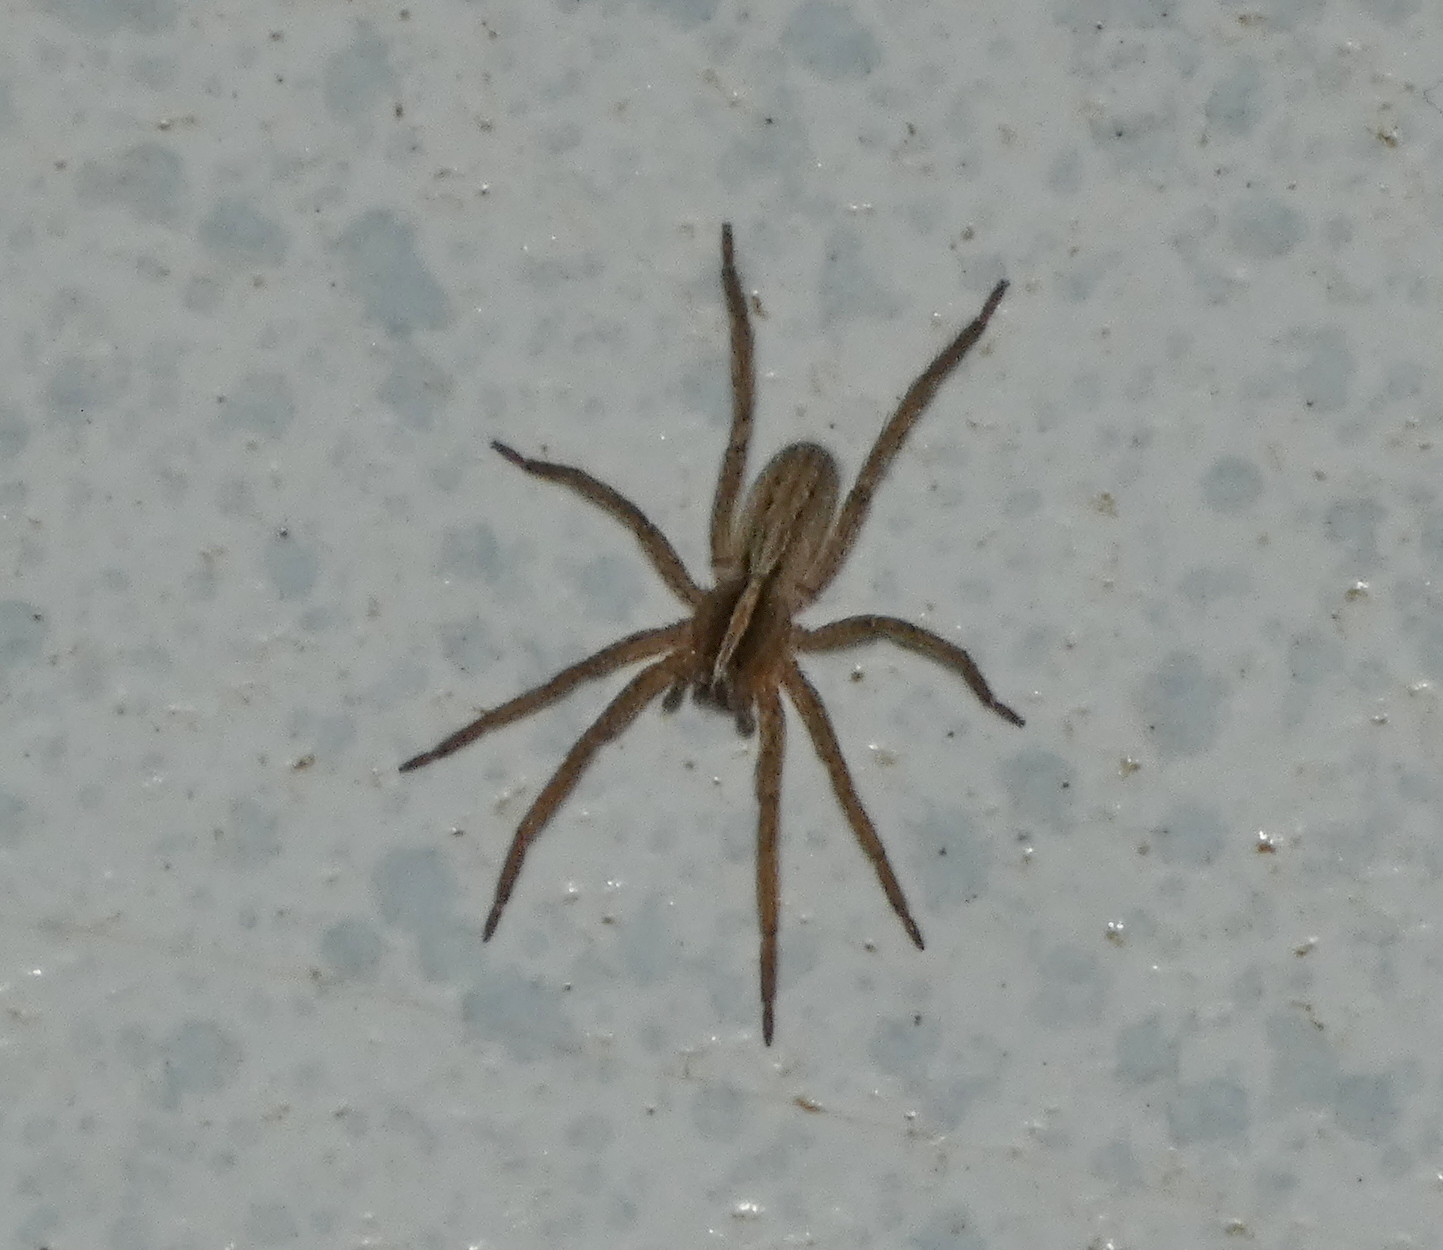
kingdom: Animalia
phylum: Arthropoda
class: Arachnida
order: Araneae
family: Ctenidae
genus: Parabatinga
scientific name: Parabatinga brevipes
